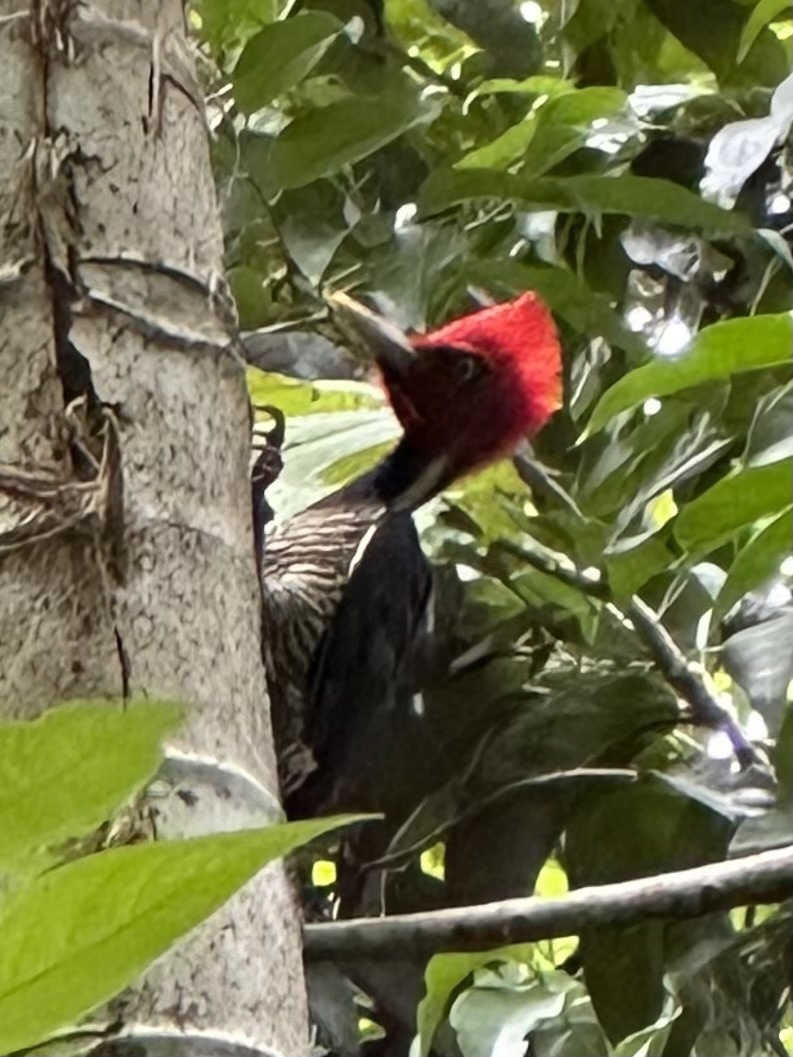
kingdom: Animalia
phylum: Chordata
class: Aves
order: Piciformes
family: Picidae
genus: Campephilus
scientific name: Campephilus guatemalensis
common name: Pale-billed woodpecker
